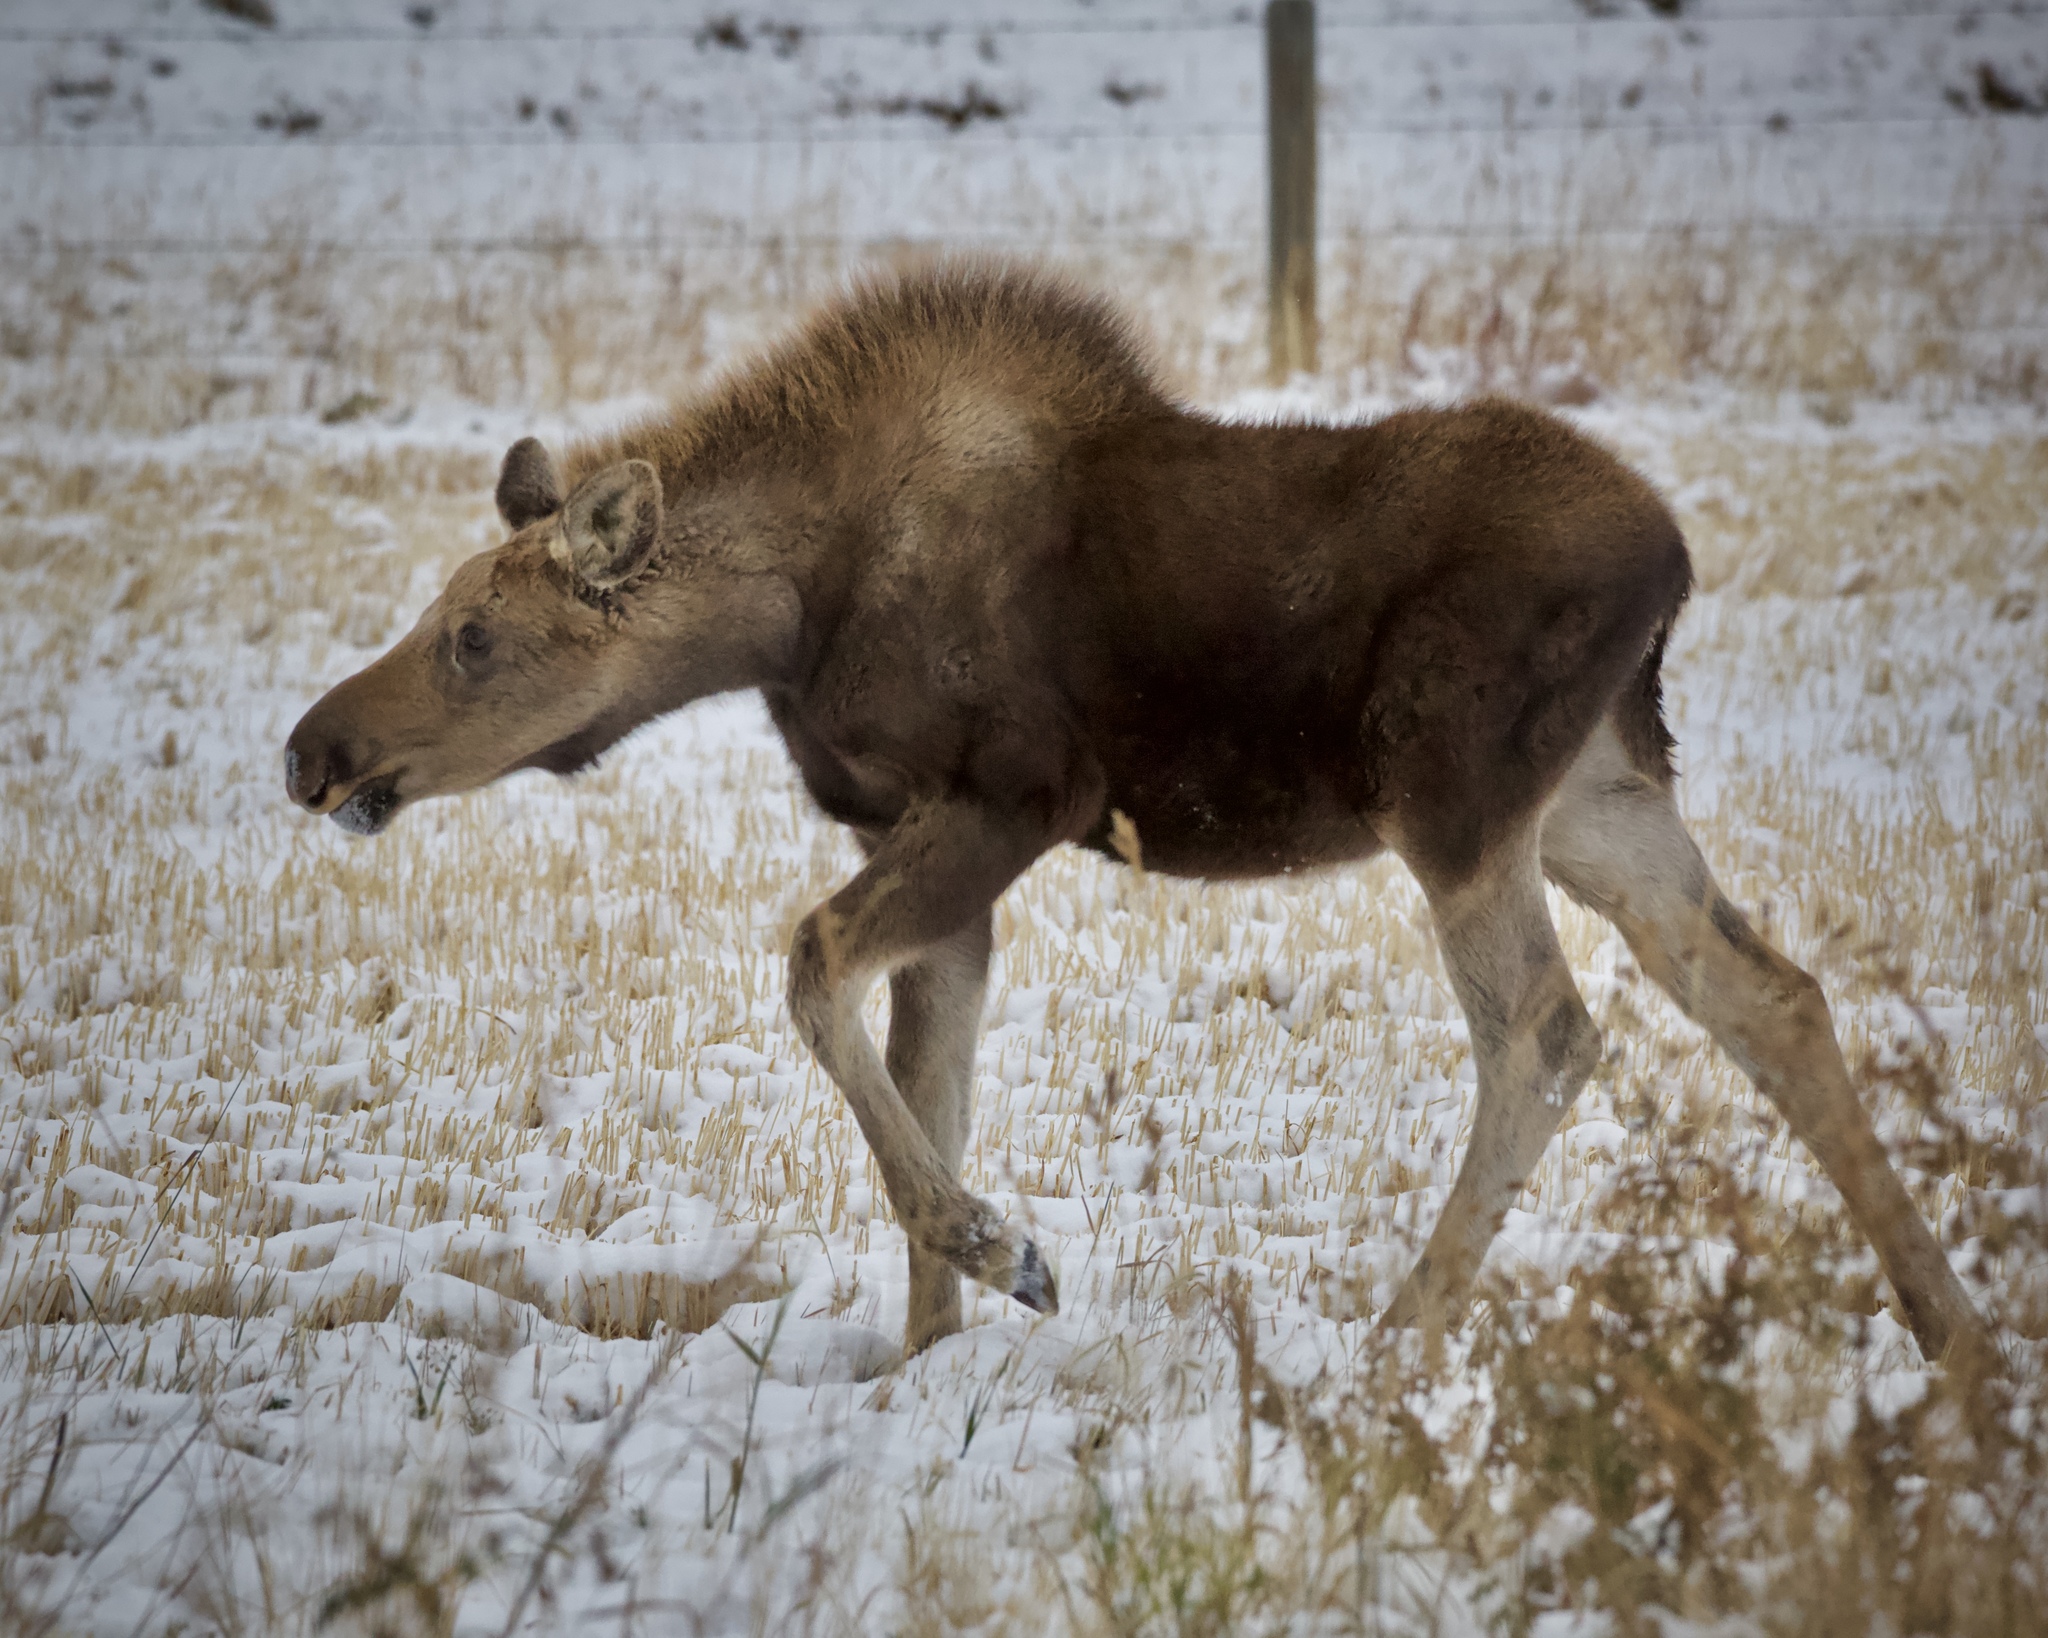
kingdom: Animalia
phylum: Chordata
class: Mammalia
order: Artiodactyla
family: Cervidae
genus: Alces
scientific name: Alces alces
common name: Moose
